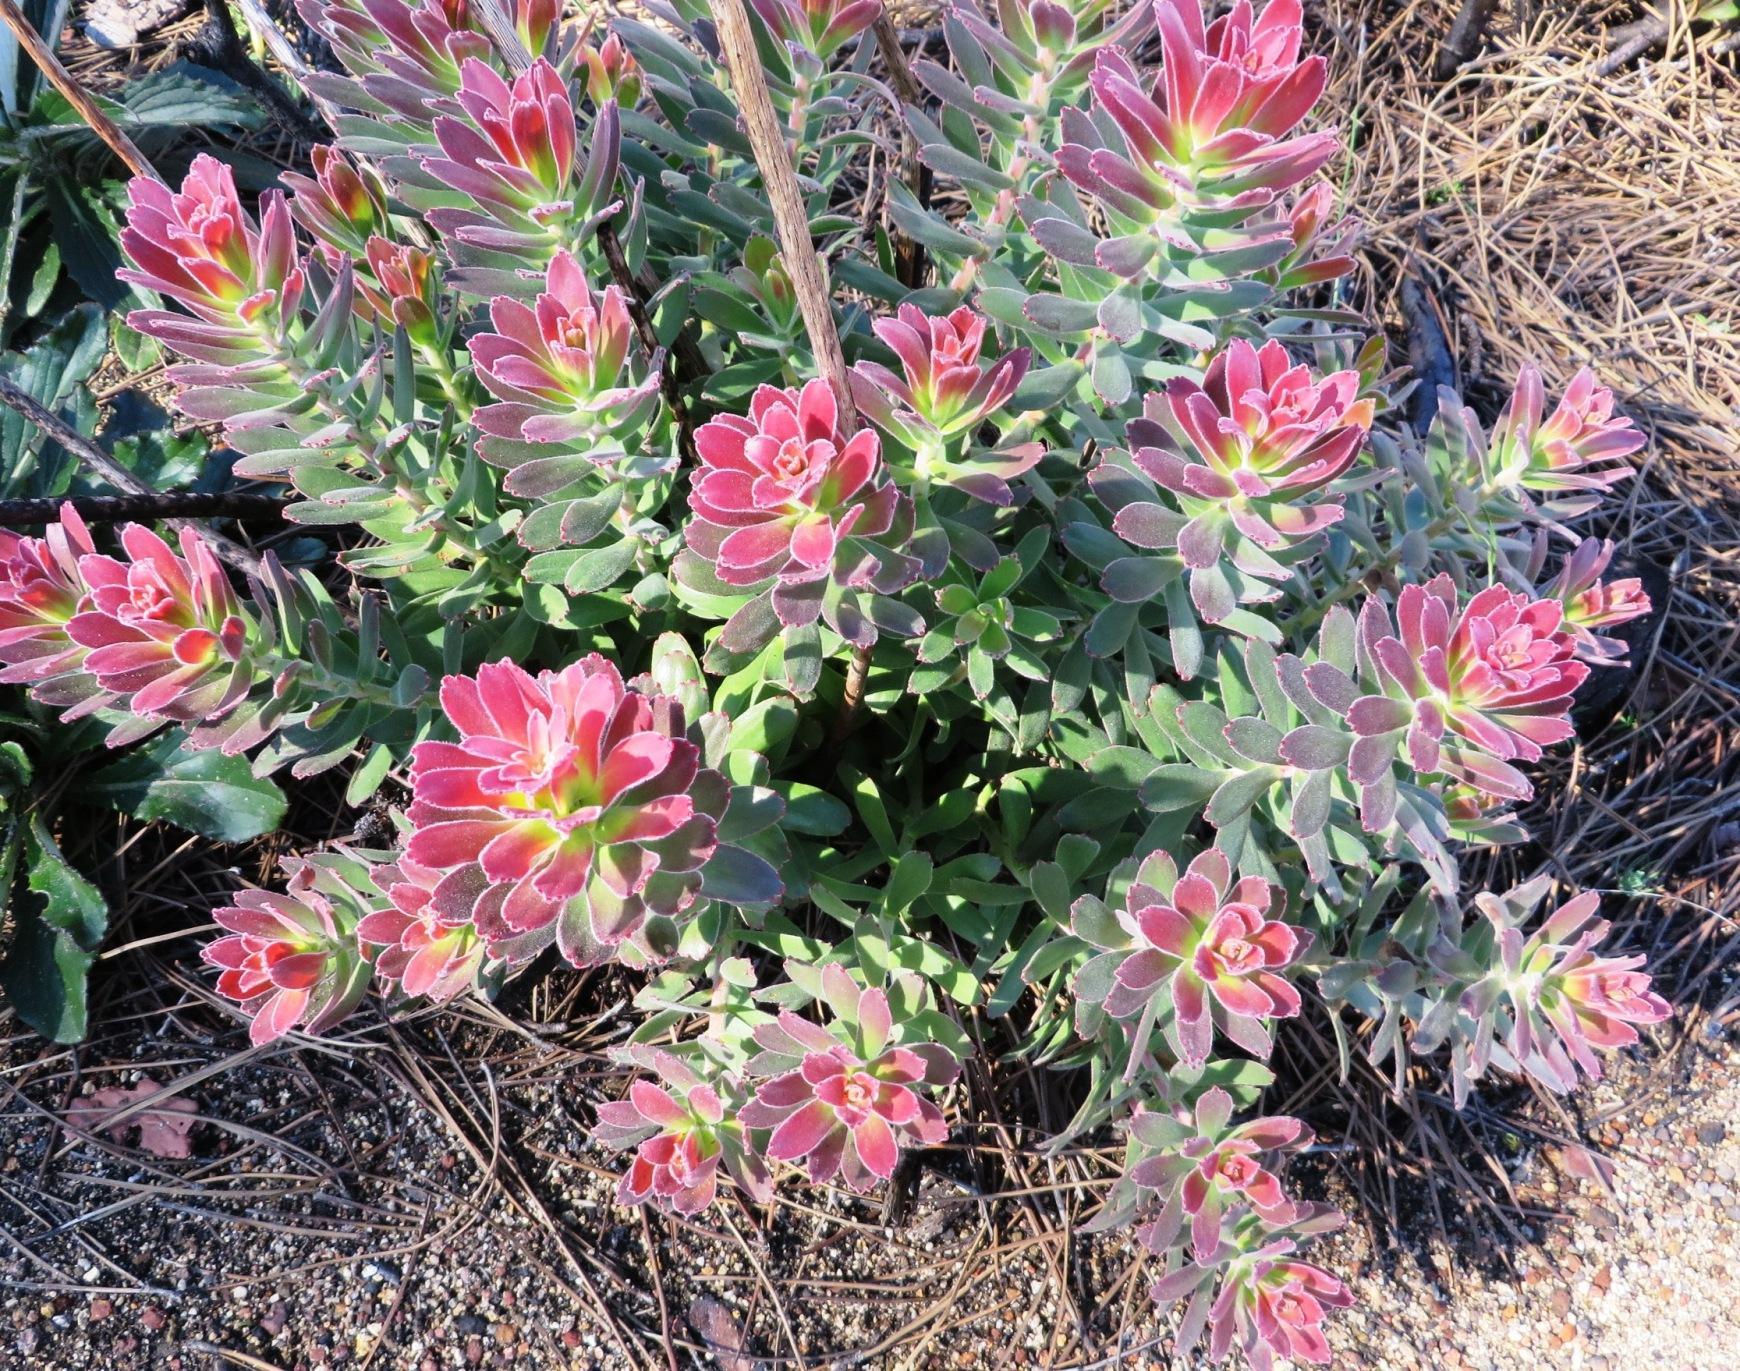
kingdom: Plantae
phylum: Tracheophyta
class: Magnoliopsida
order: Proteales
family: Proteaceae
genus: Mimetes
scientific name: Mimetes cucullatus
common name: Common pagoda
